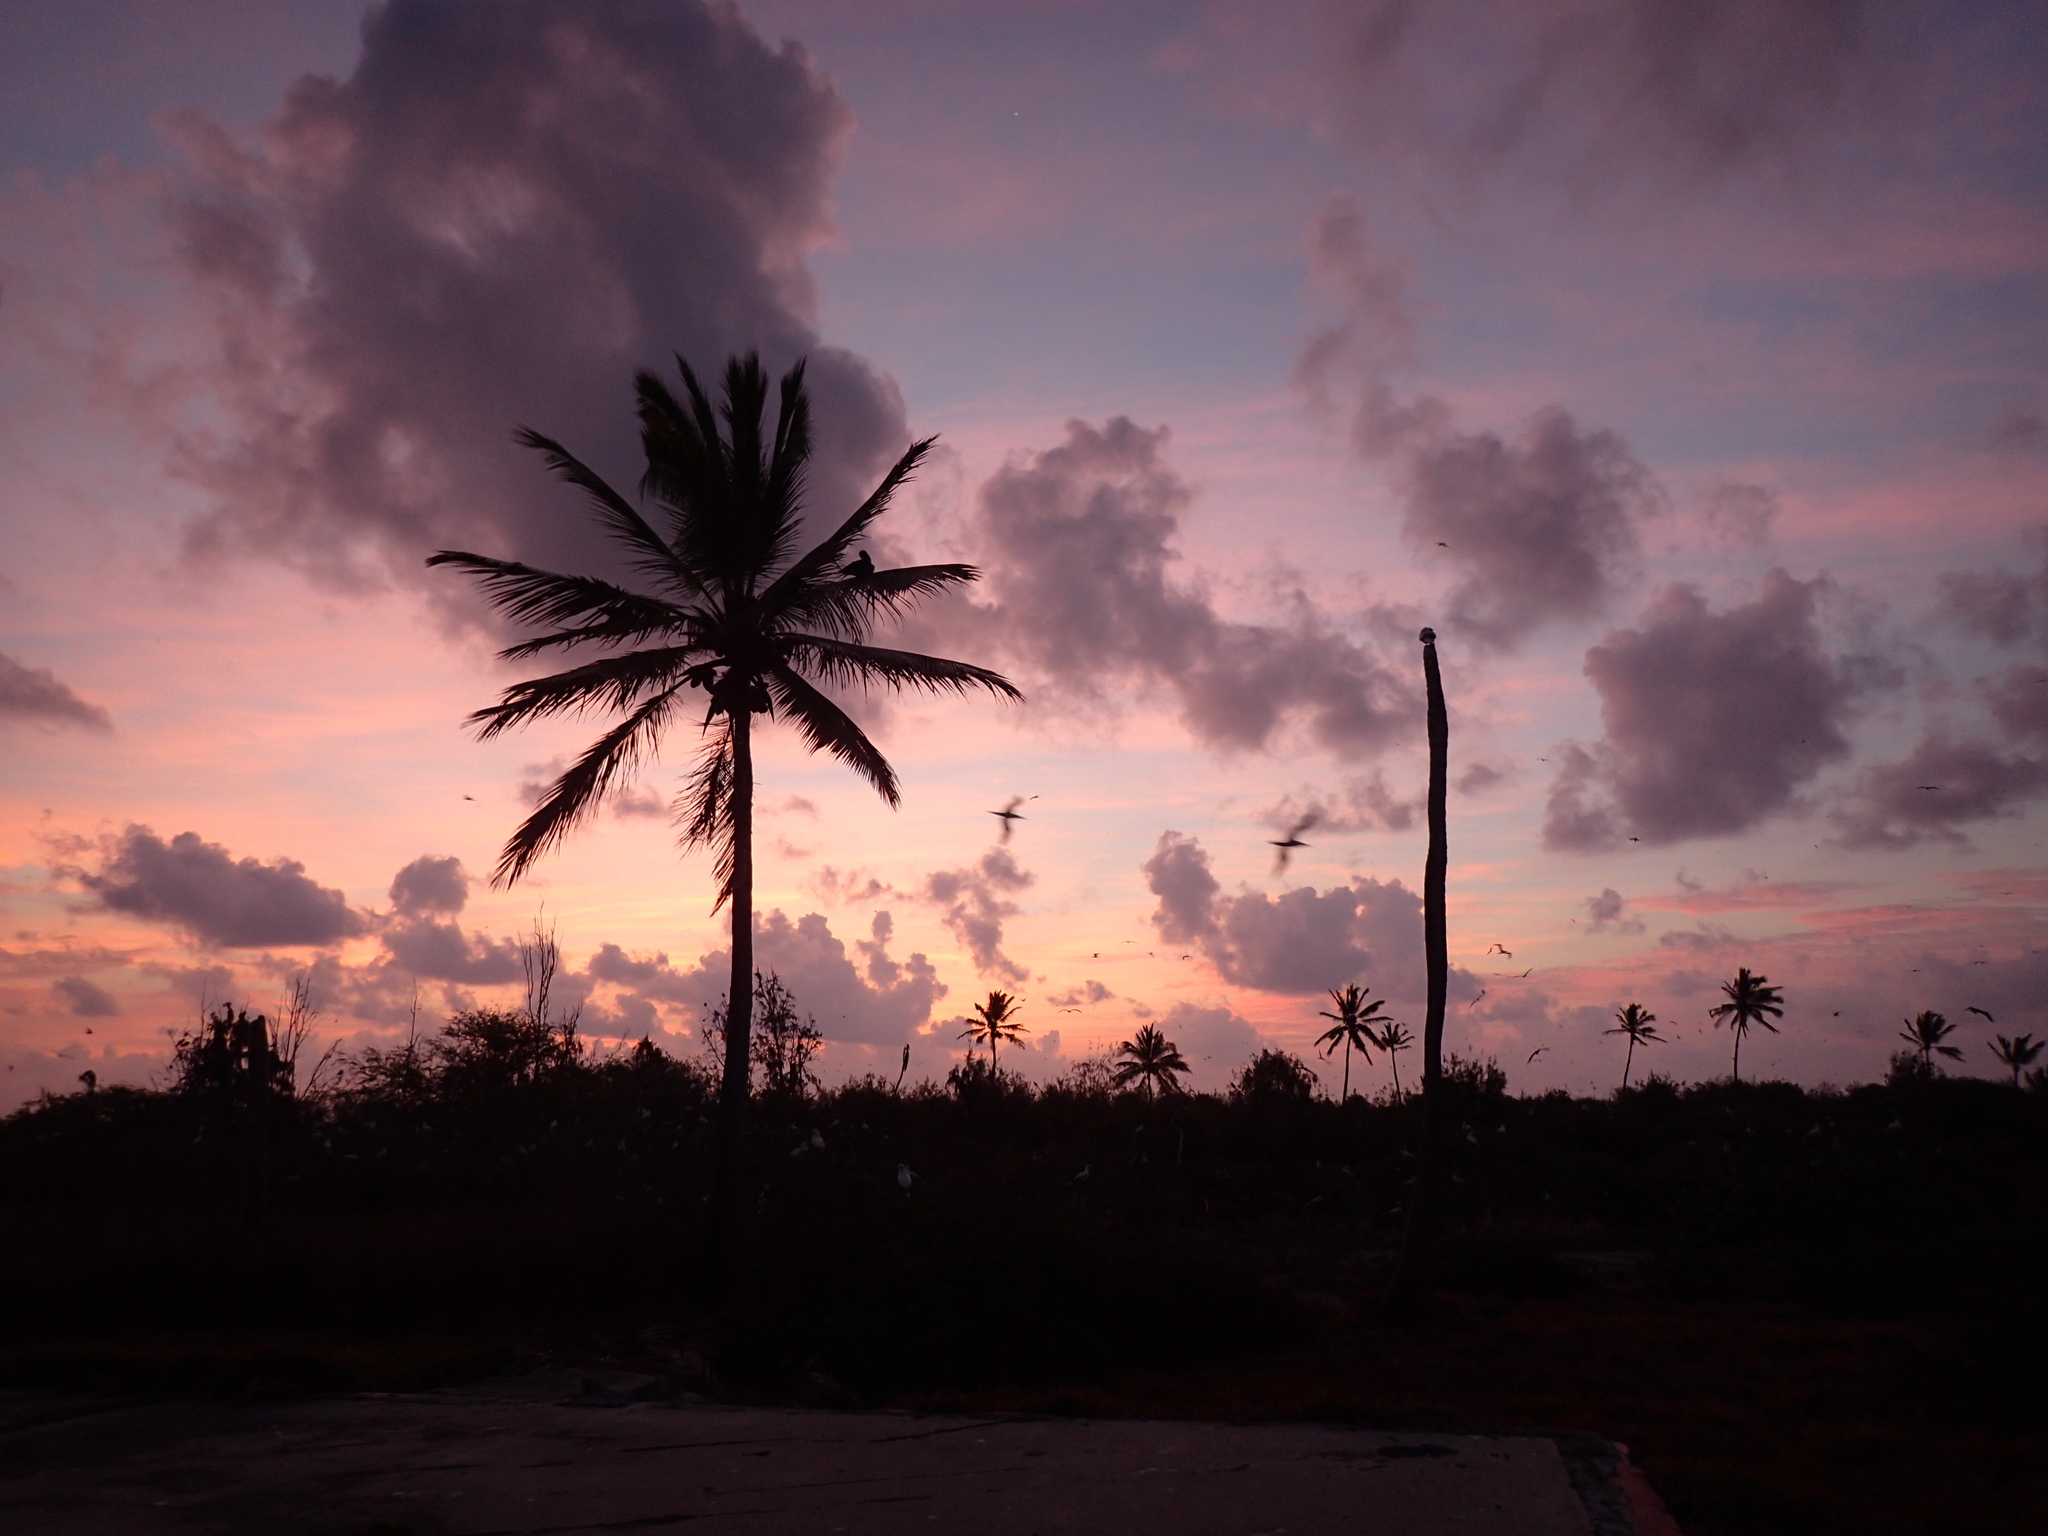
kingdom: Plantae
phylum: Tracheophyta
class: Liliopsida
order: Arecales
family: Arecaceae
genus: Cocos
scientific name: Cocos nucifera
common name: Coconut palm
